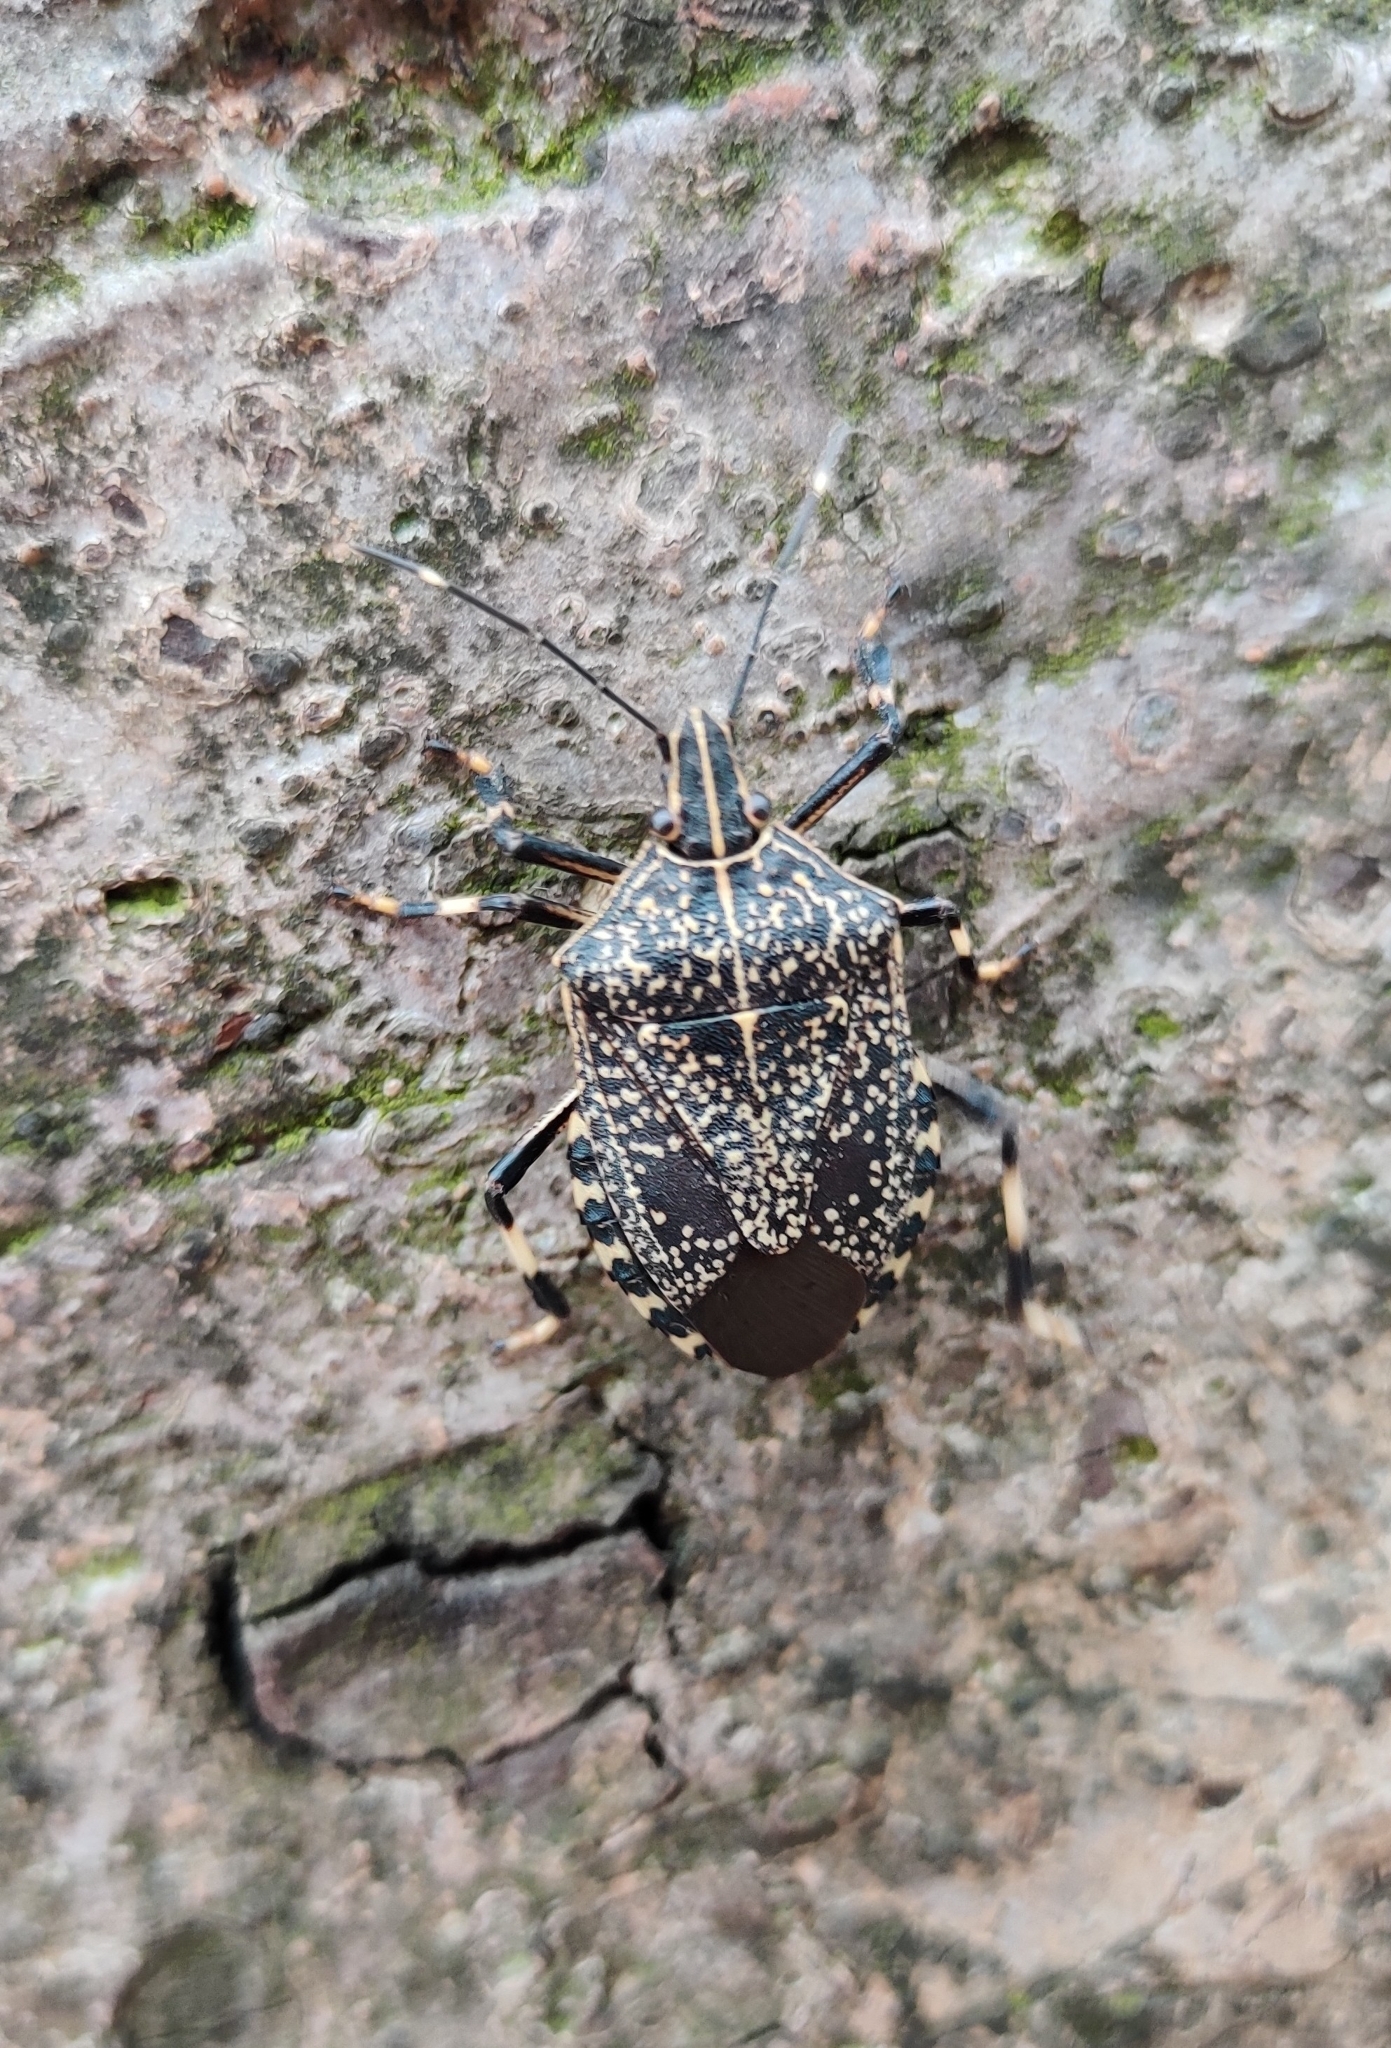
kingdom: Animalia
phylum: Arthropoda
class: Insecta
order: Hemiptera
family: Pentatomidae
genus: Erthesina
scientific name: Erthesina fullo
